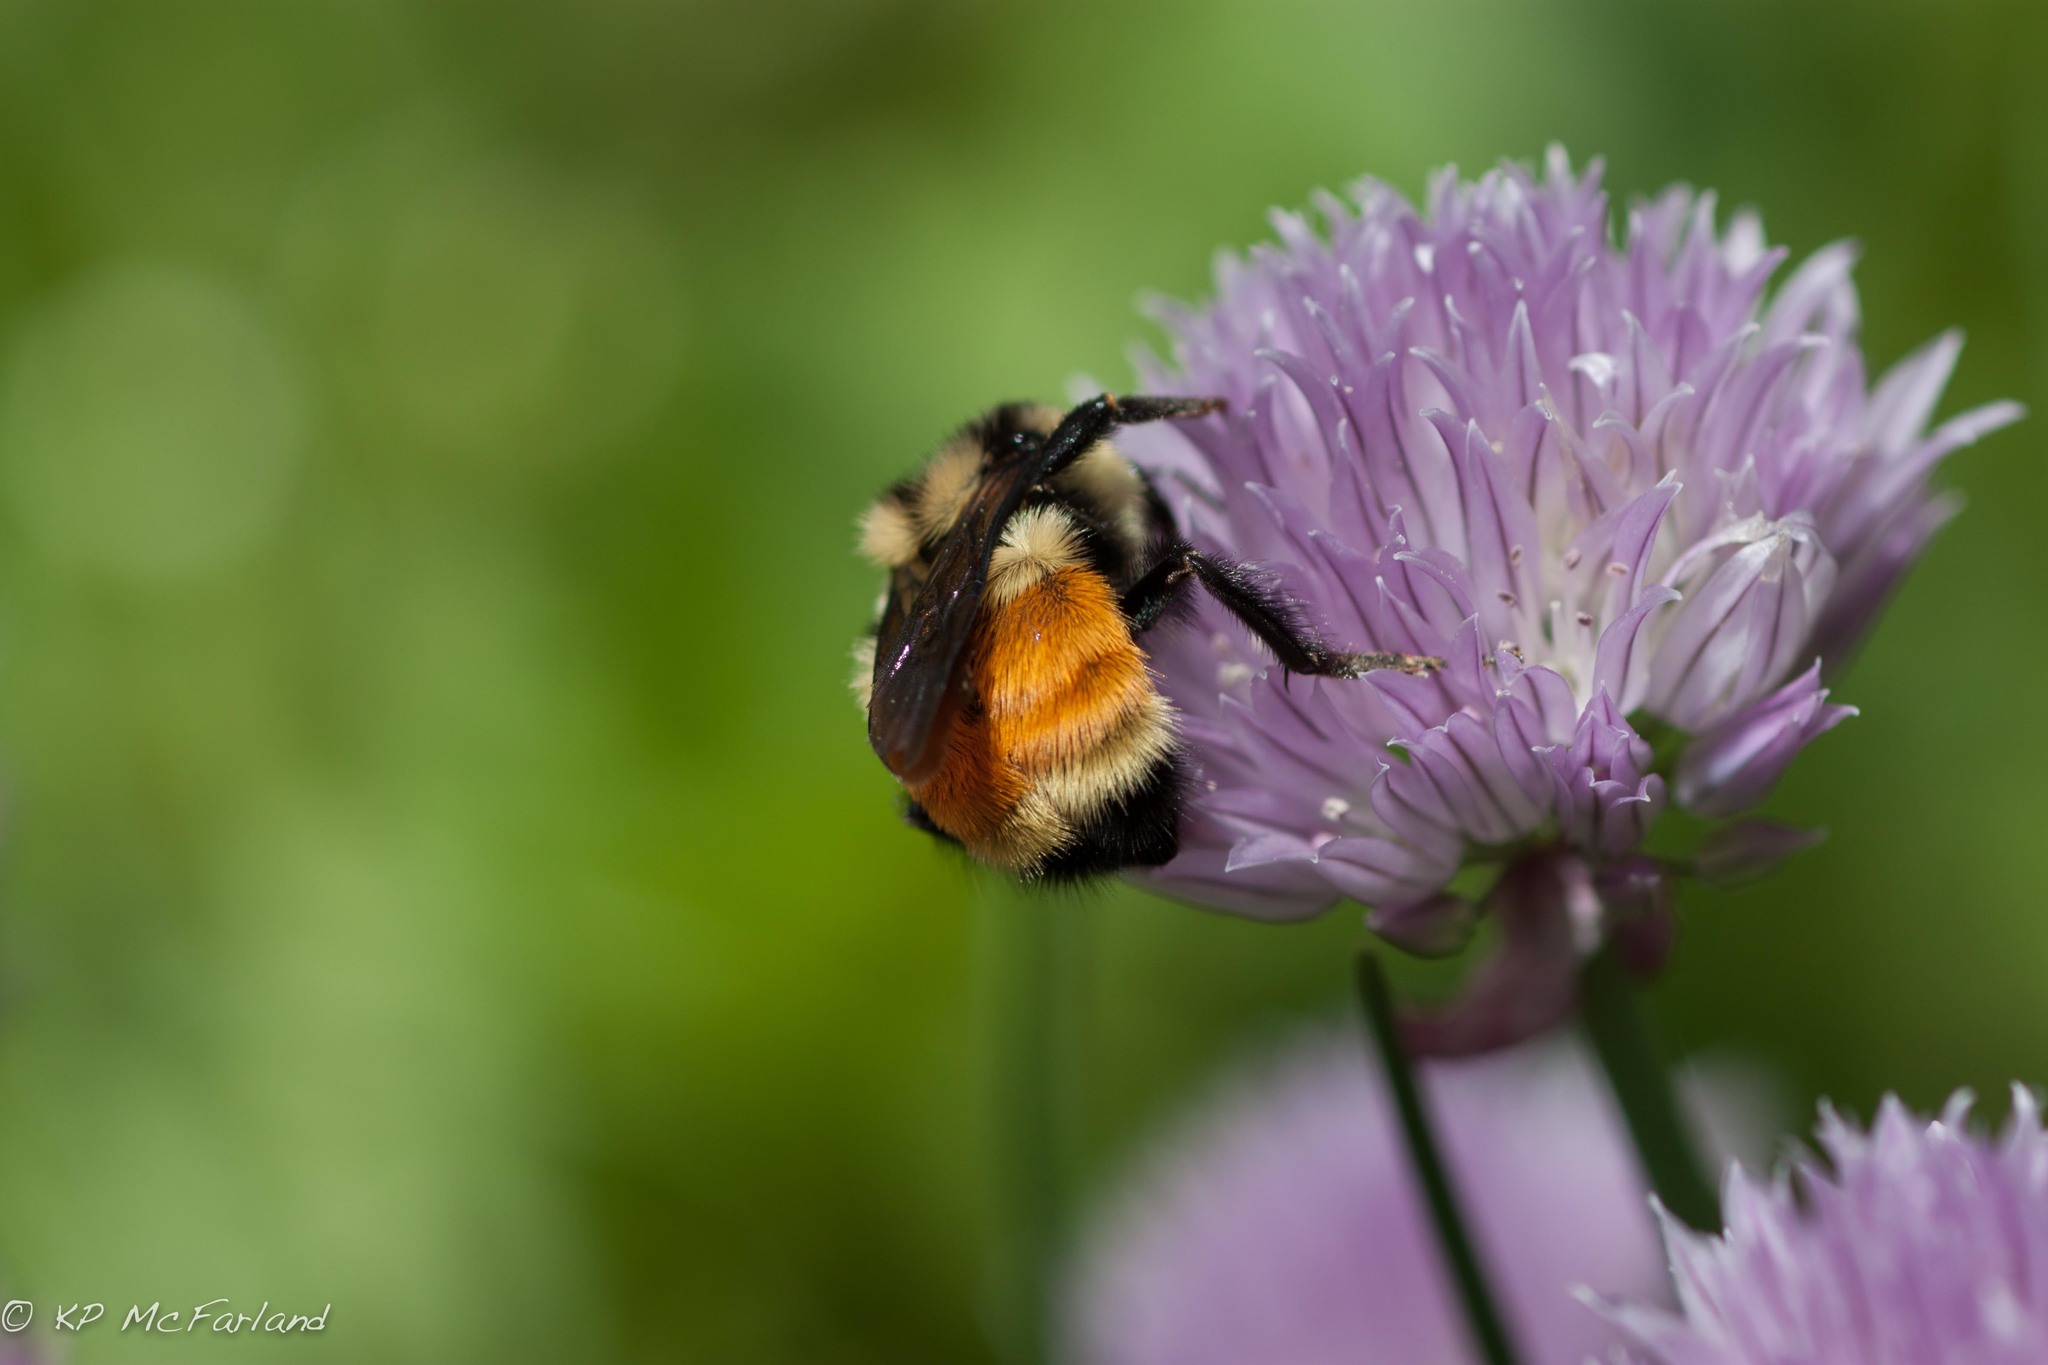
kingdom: Animalia
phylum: Arthropoda
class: Insecta
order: Hymenoptera
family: Apidae
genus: Bombus
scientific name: Bombus ternarius
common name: Tri-colored bumble bee
